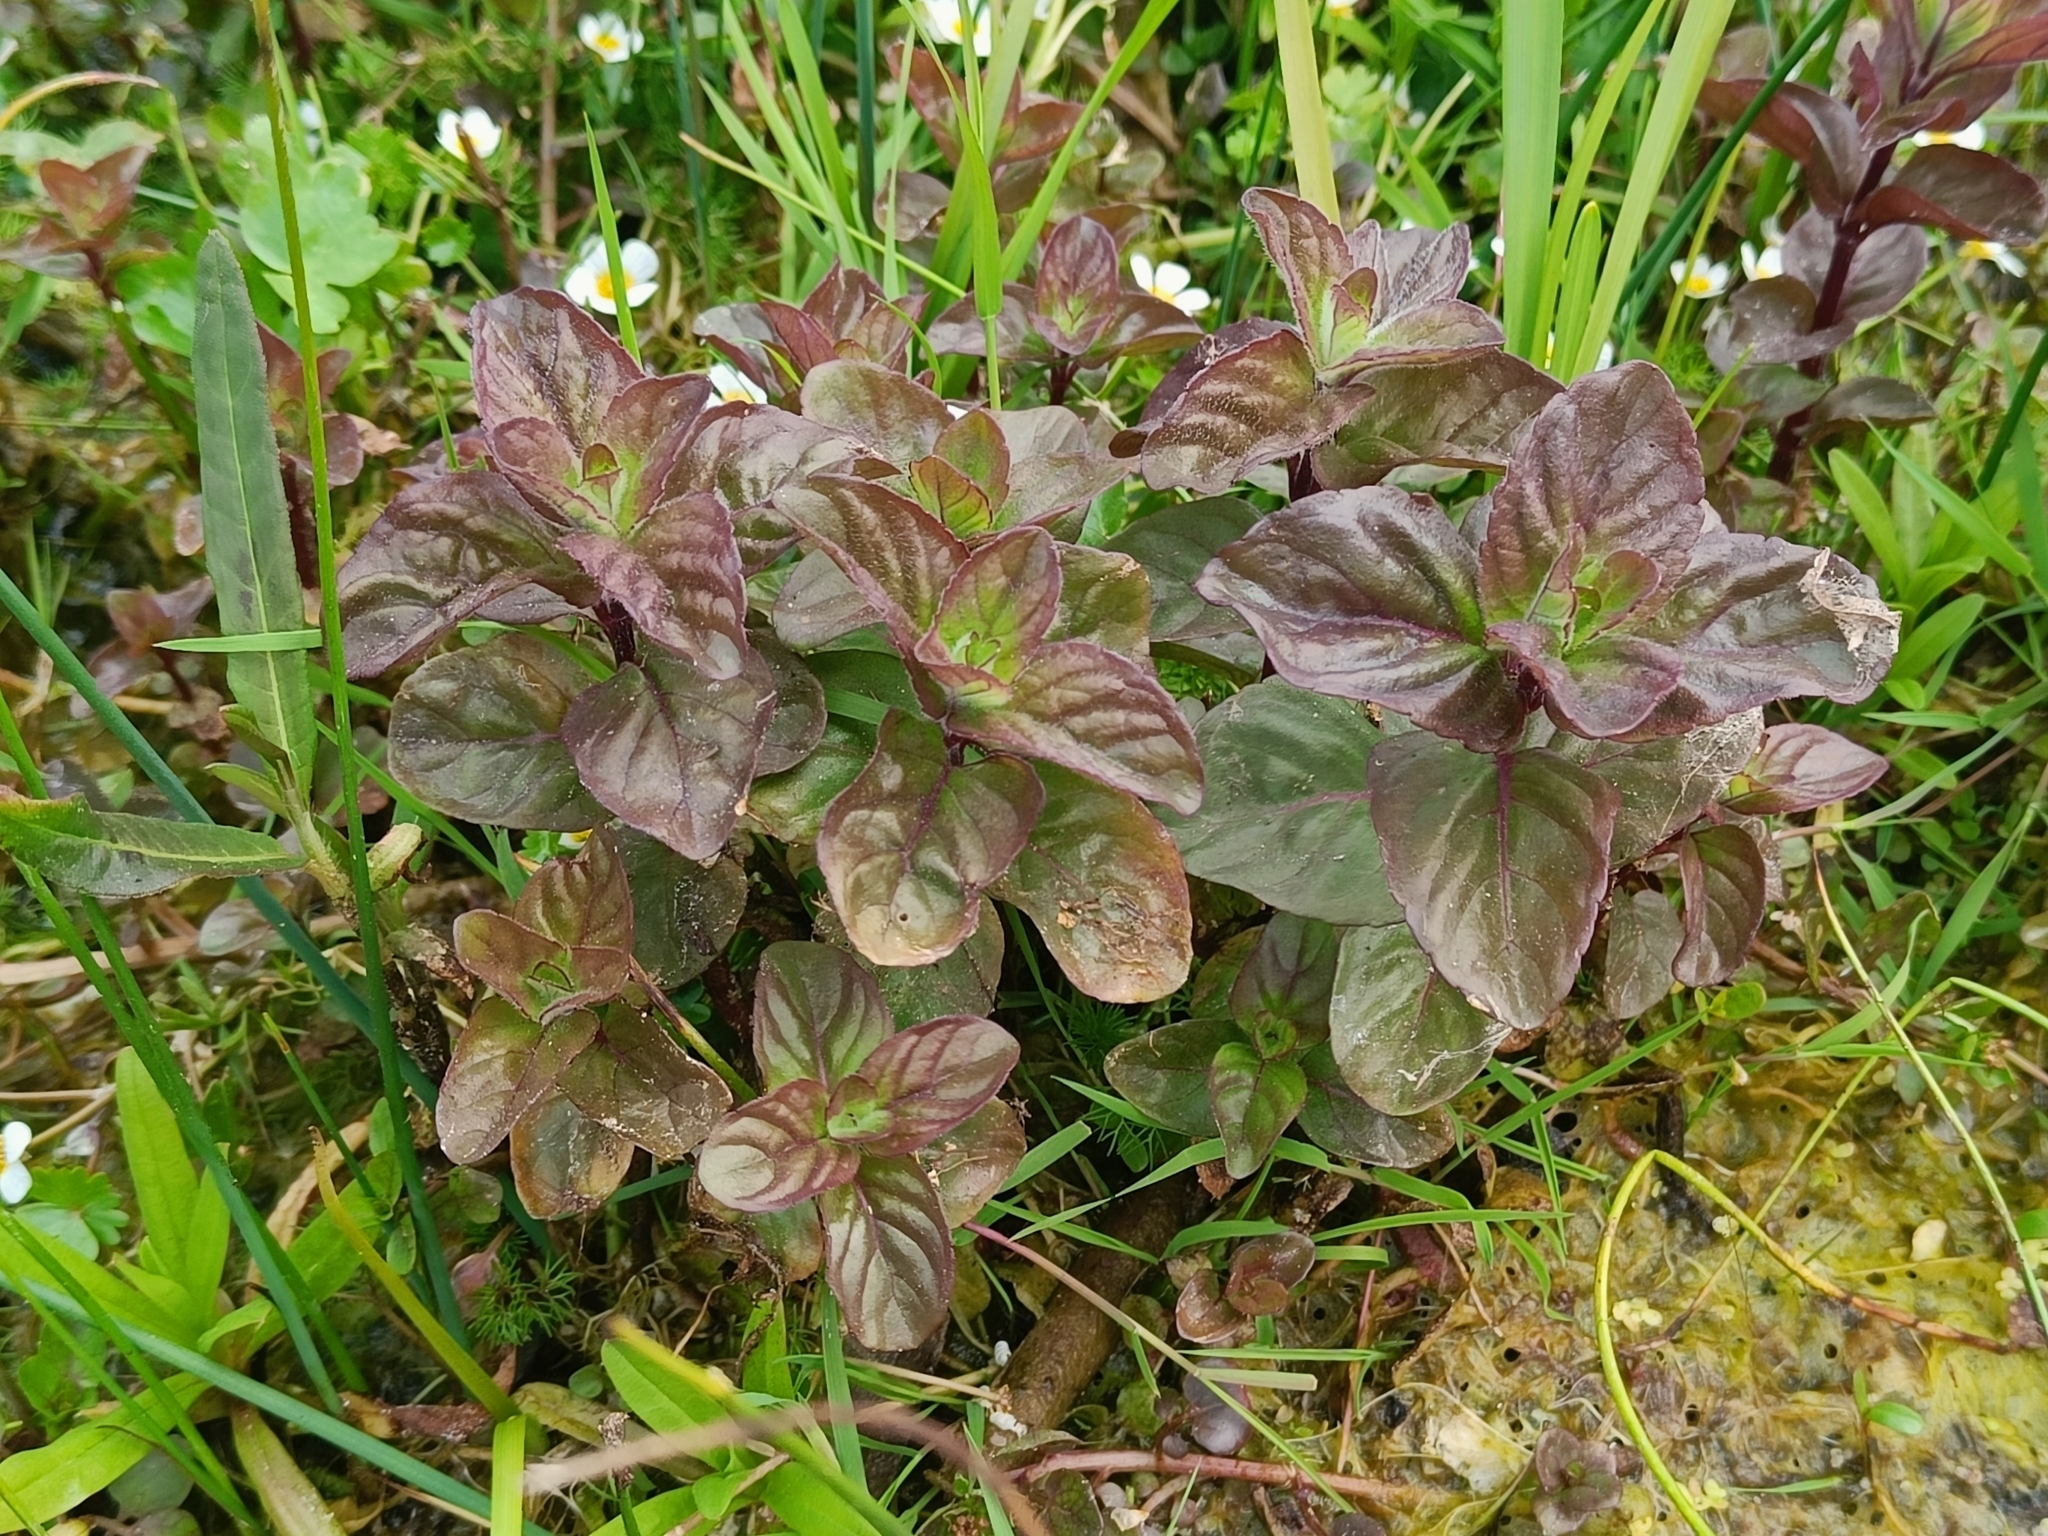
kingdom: Plantae
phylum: Tracheophyta
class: Magnoliopsida
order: Lamiales
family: Lamiaceae
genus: Mentha
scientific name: Mentha aquatica
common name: Water mint
